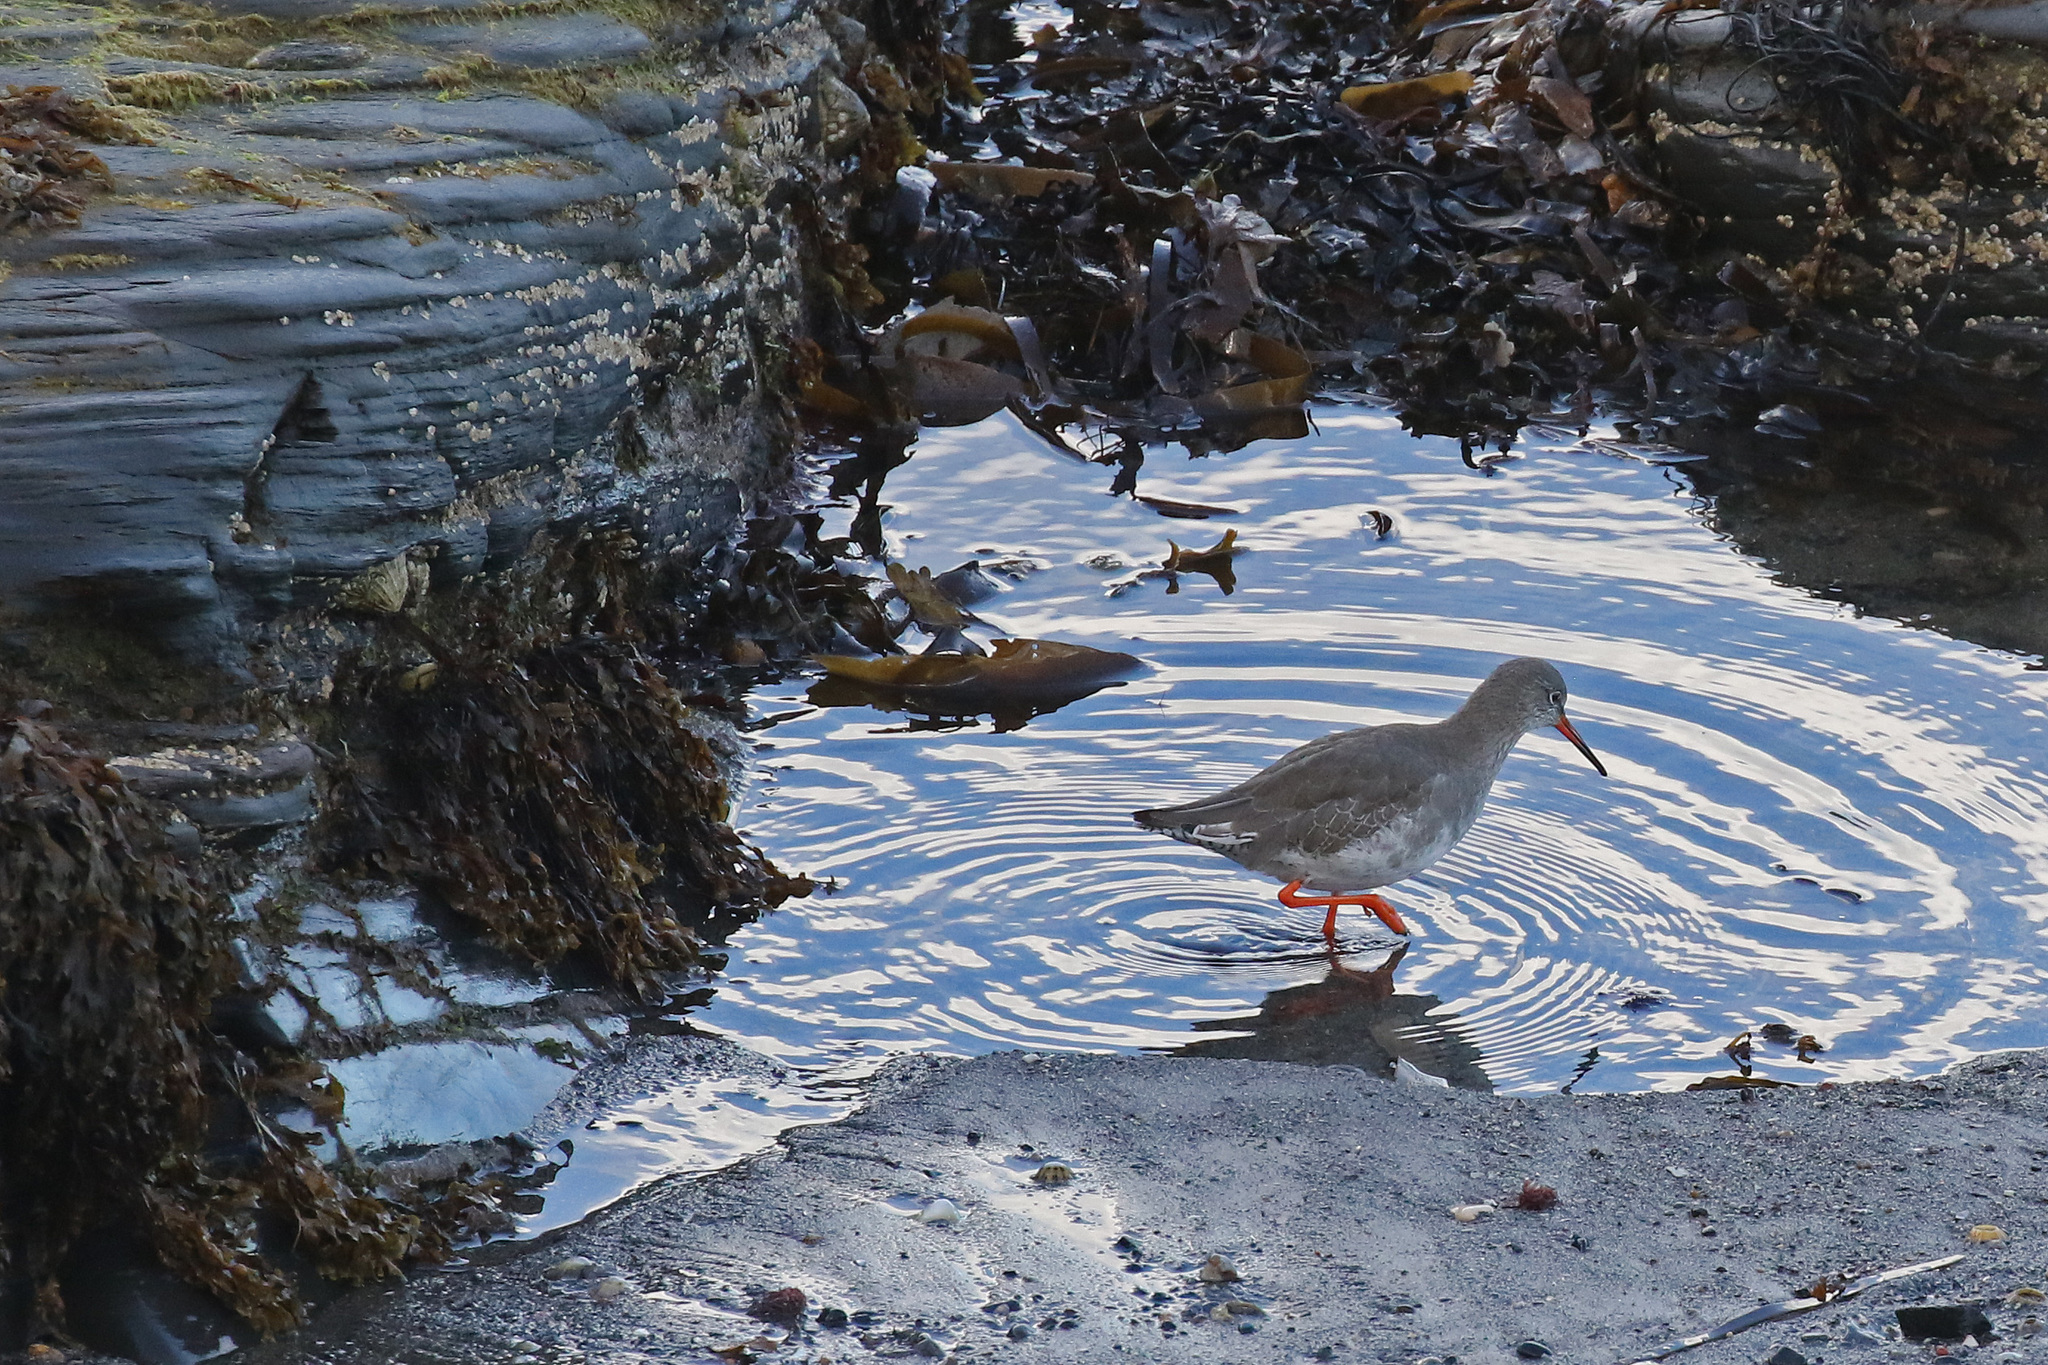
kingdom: Animalia
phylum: Chordata
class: Aves
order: Charadriiformes
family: Scolopacidae
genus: Tringa
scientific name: Tringa totanus
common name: Common redshank
